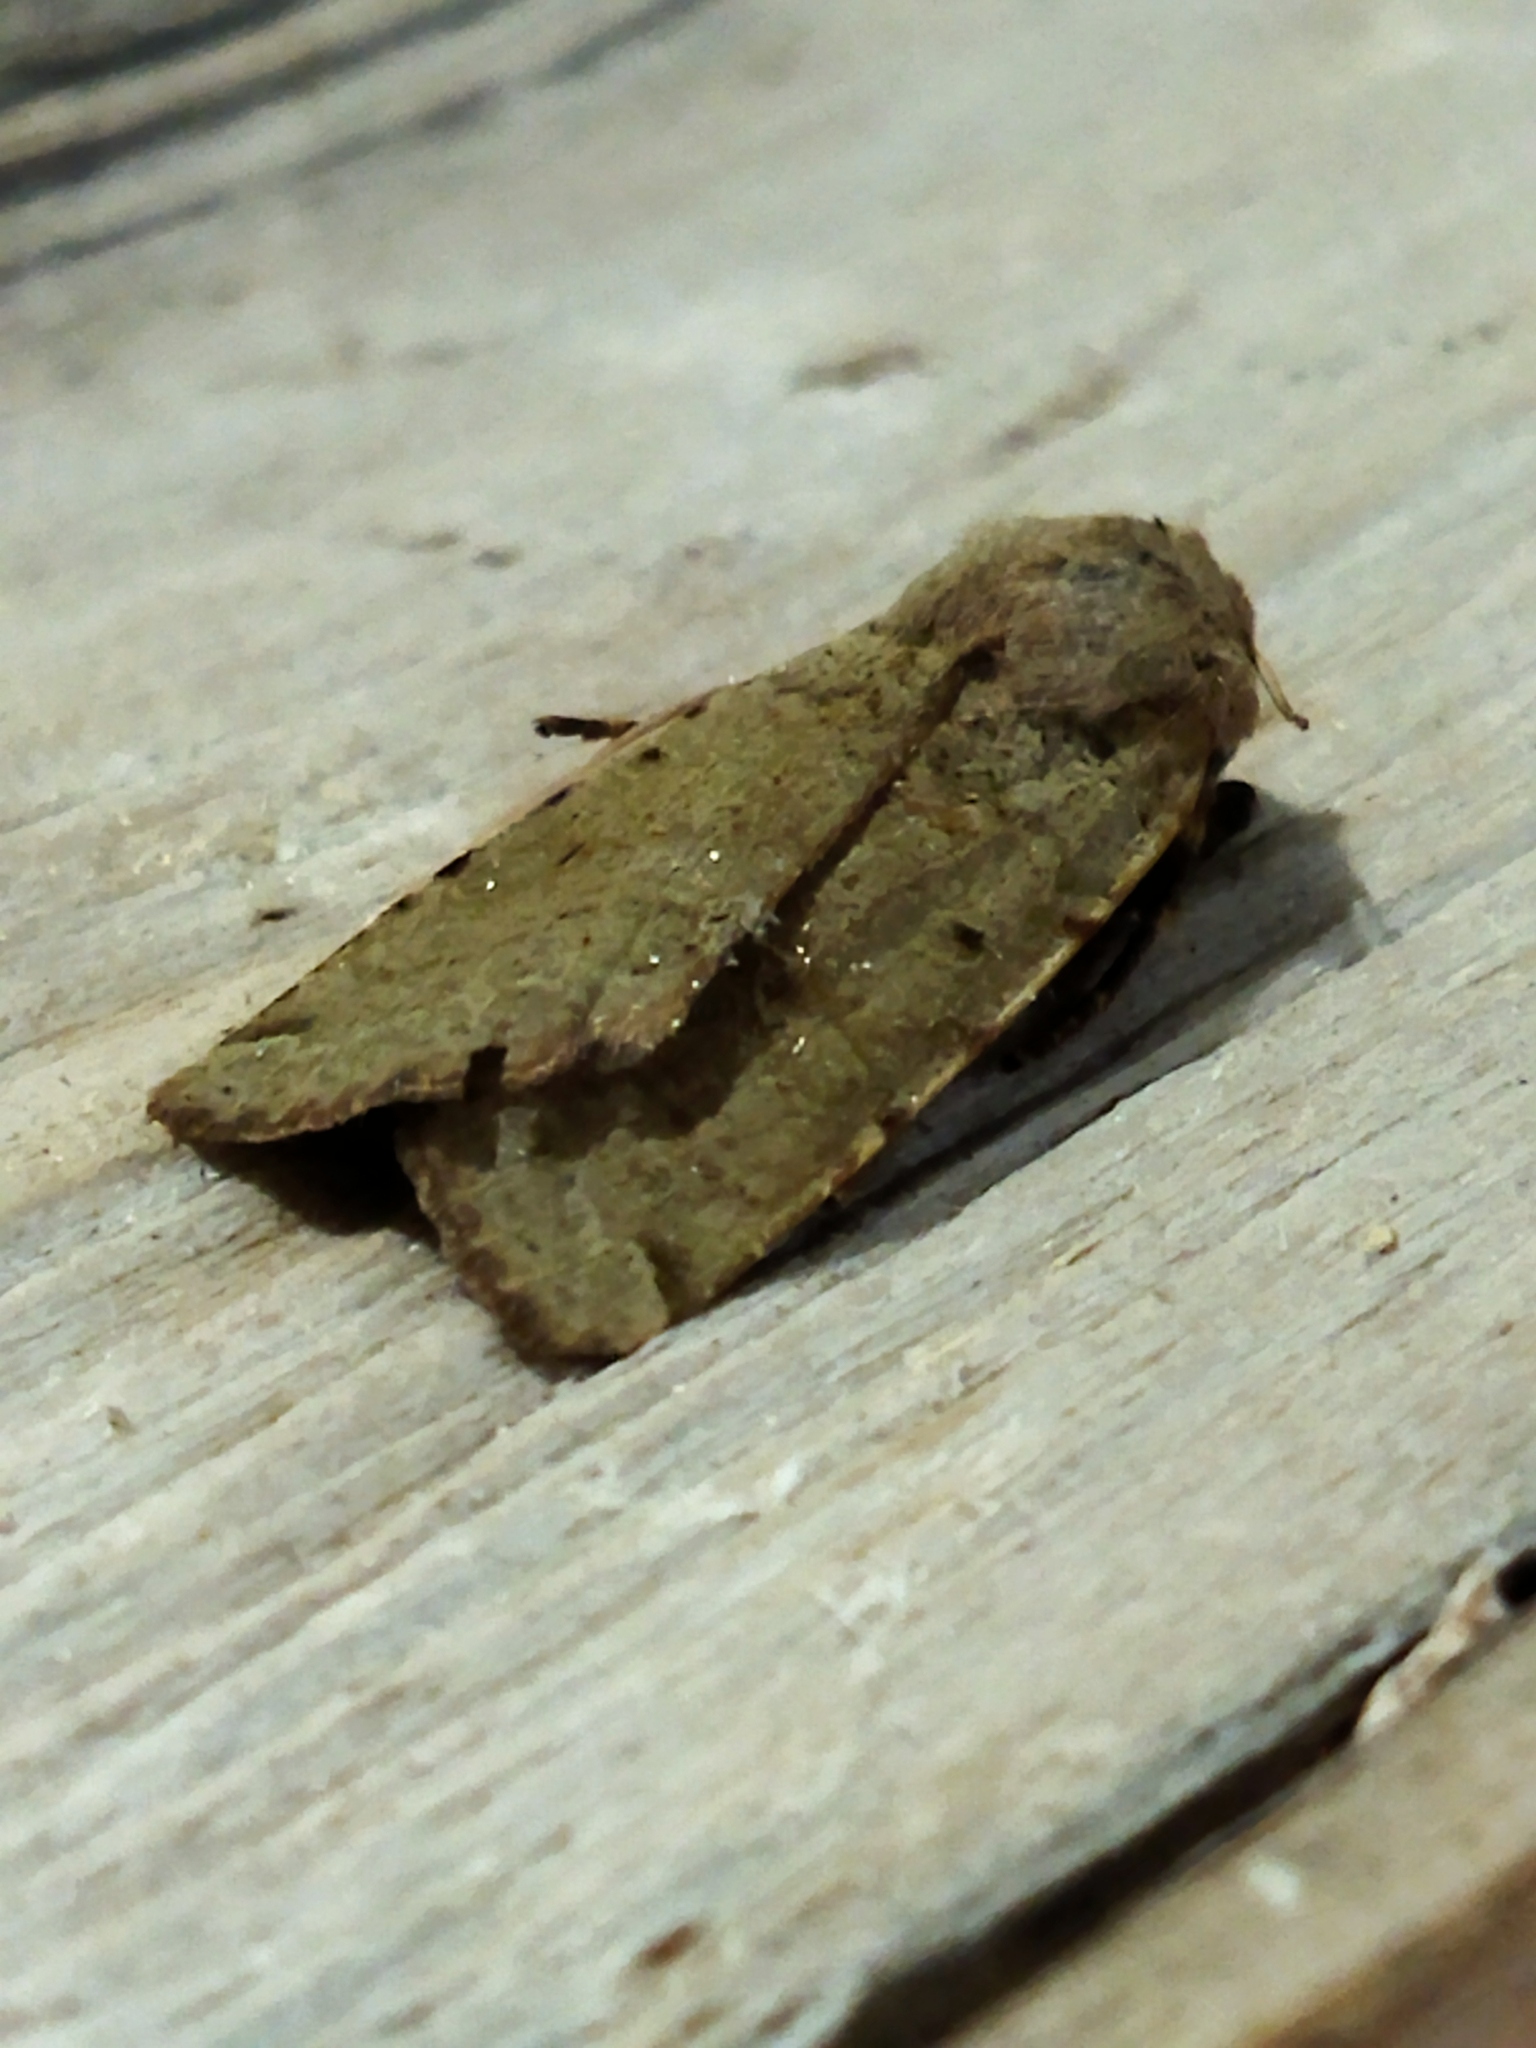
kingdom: Animalia
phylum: Arthropoda
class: Insecta
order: Lepidoptera
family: Noctuidae
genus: Agrochola
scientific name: Agrochola lychnidis
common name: Beaded chestnut
